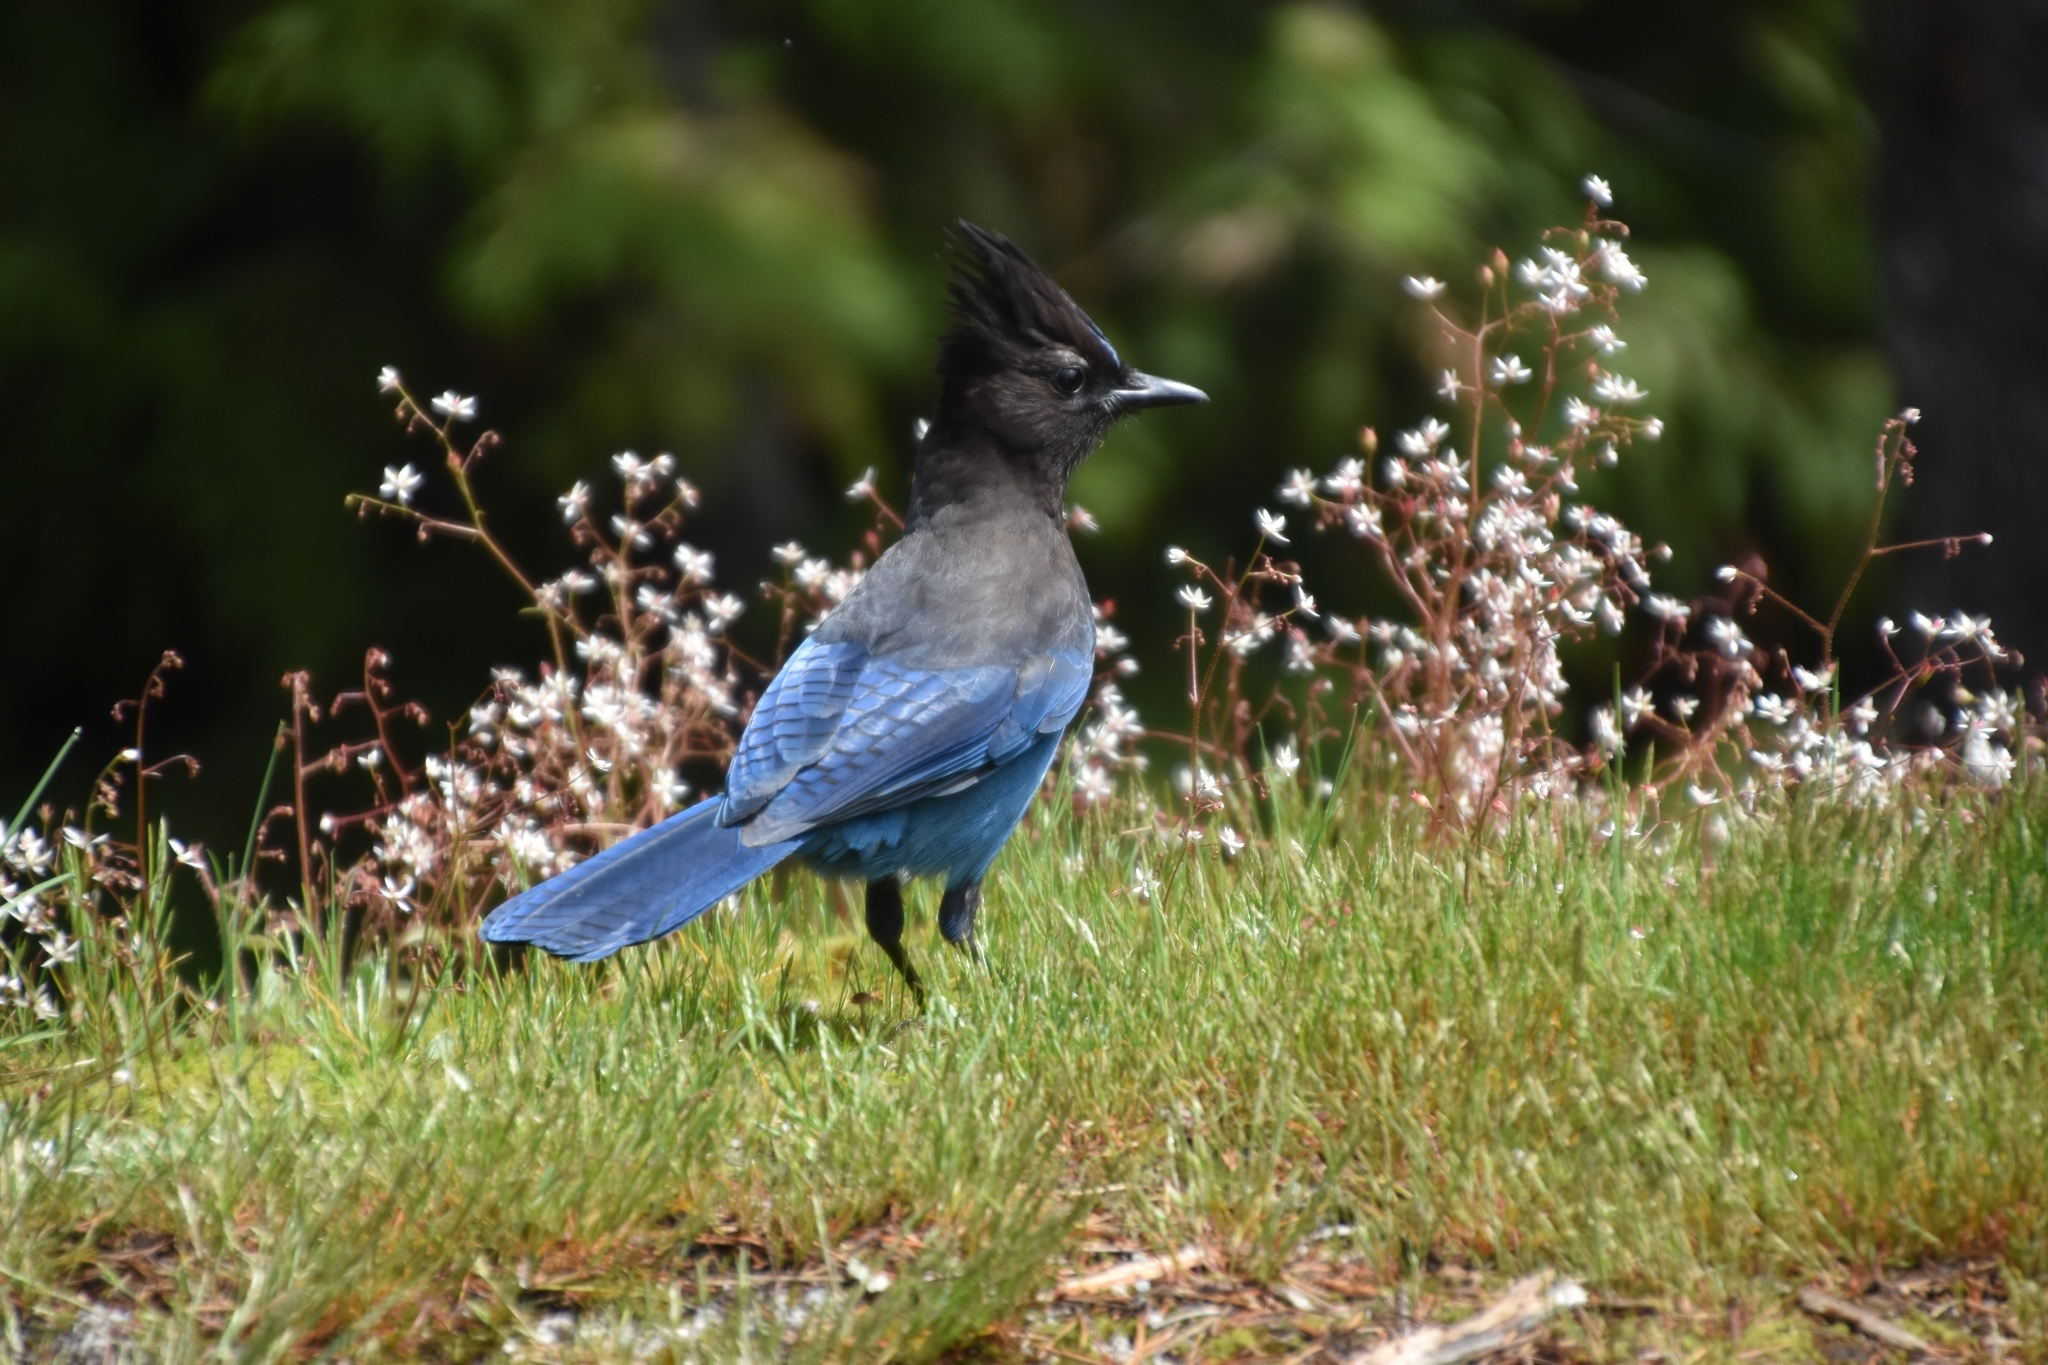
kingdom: Animalia
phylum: Chordata
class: Aves
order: Passeriformes
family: Corvidae
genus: Cyanocitta
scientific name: Cyanocitta stelleri
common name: Steller's jay
